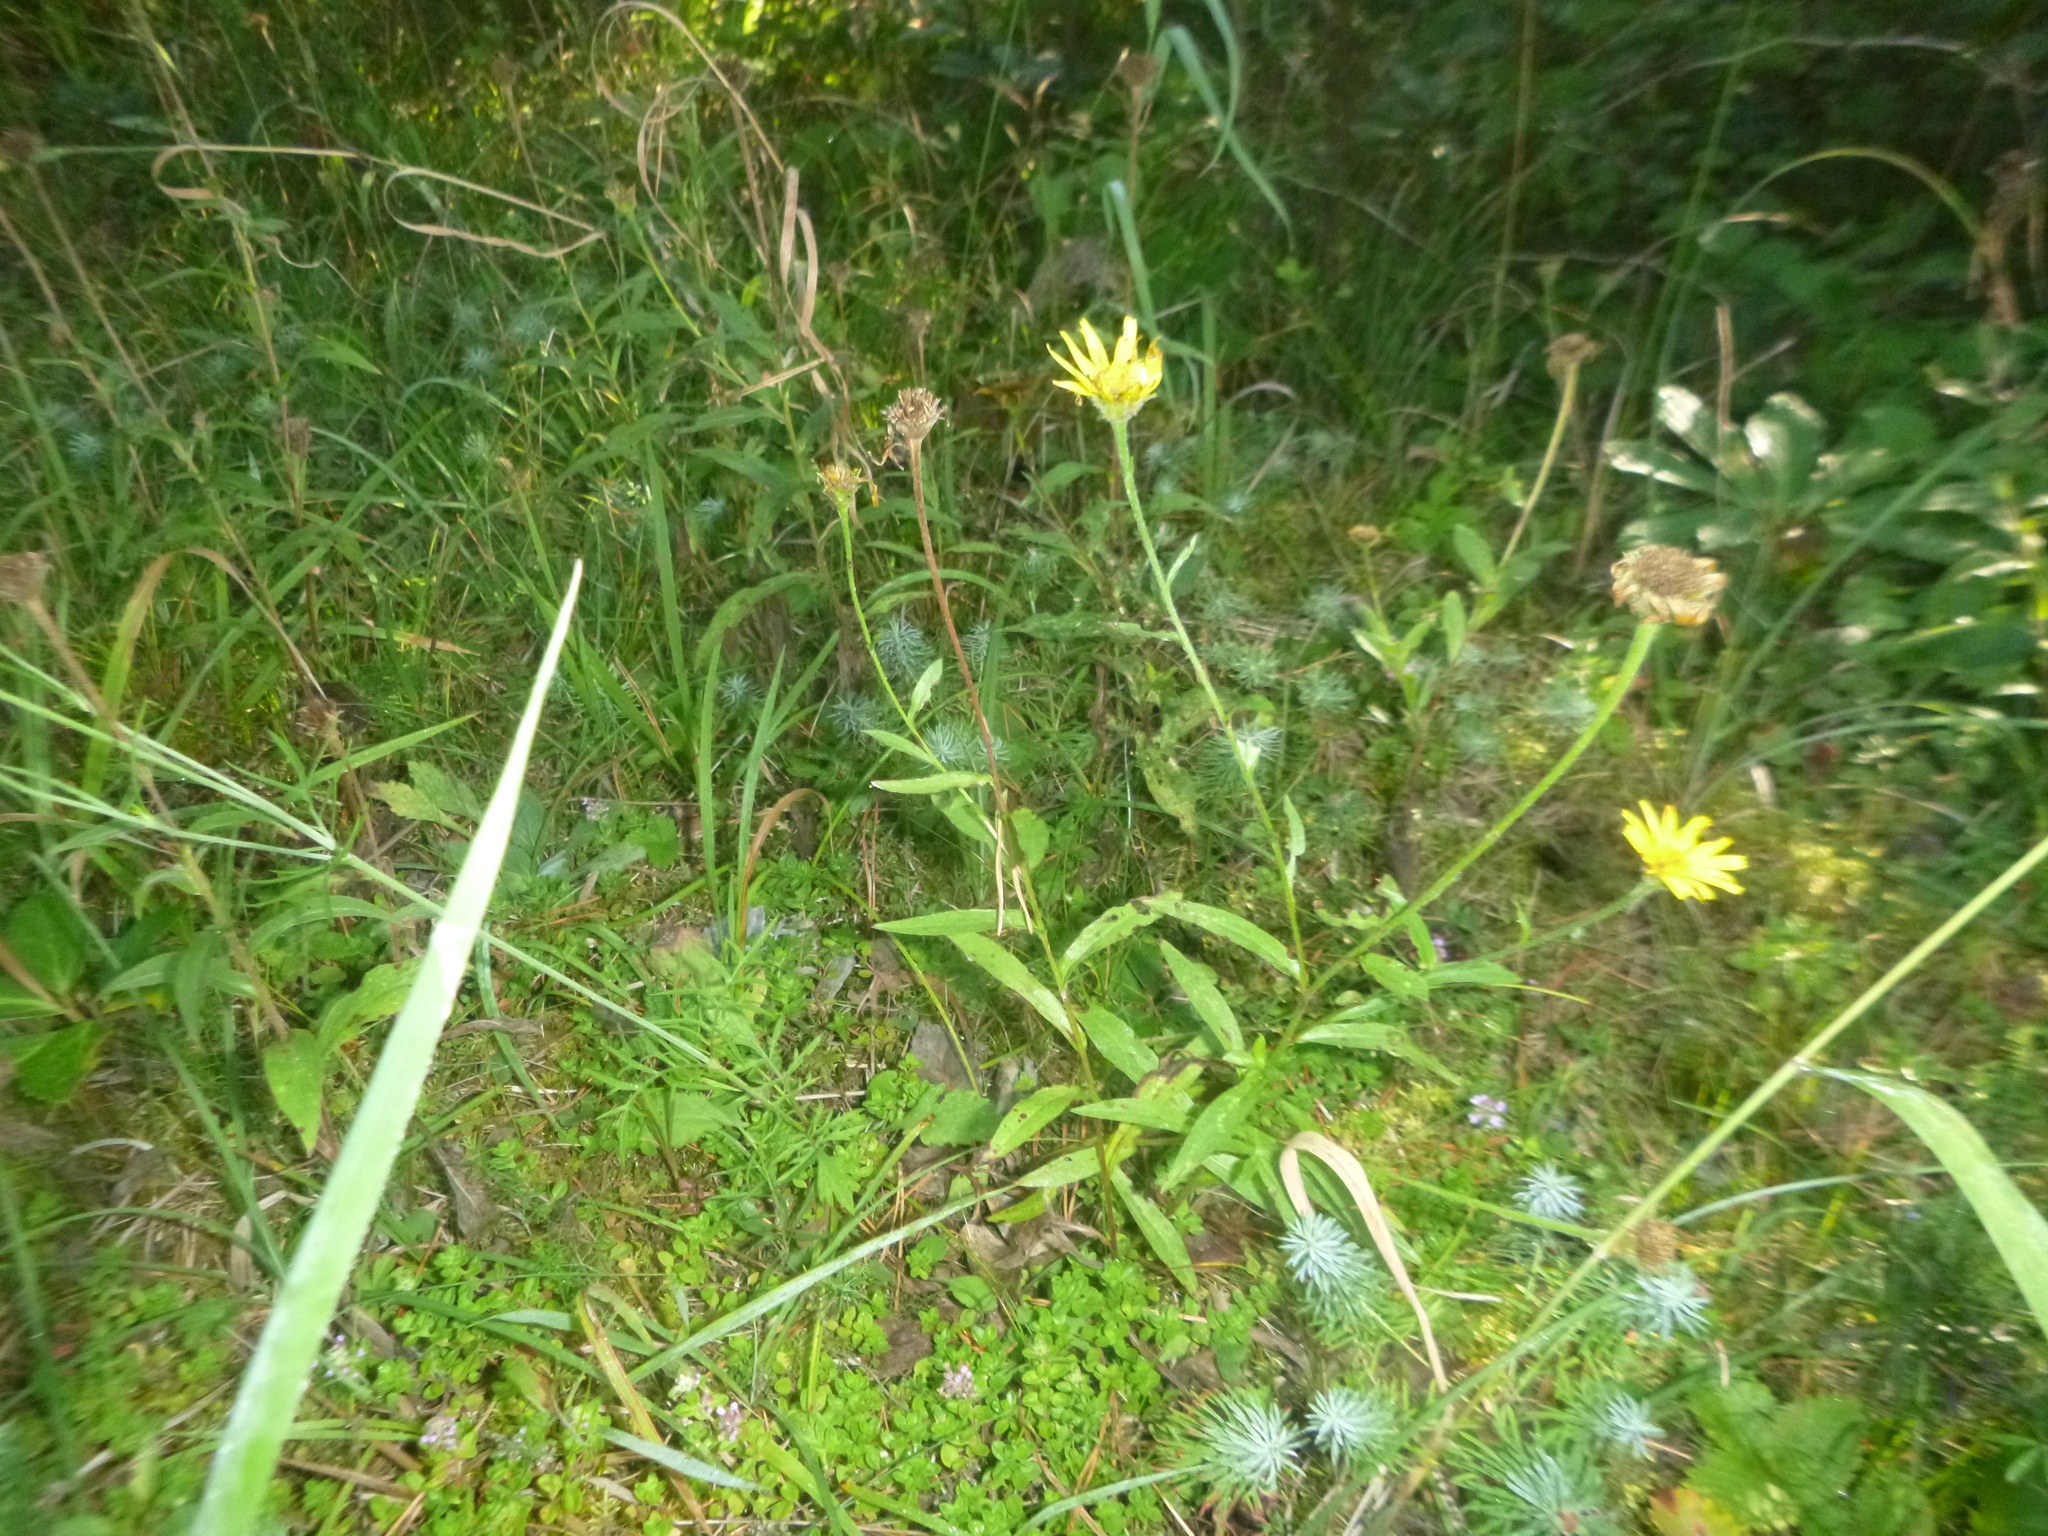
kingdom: Plantae
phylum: Tracheophyta
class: Magnoliopsida
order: Asterales
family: Asteraceae
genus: Buphthalmum
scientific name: Buphthalmum salicifolium
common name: Willow-leaved yellow-oxeye
